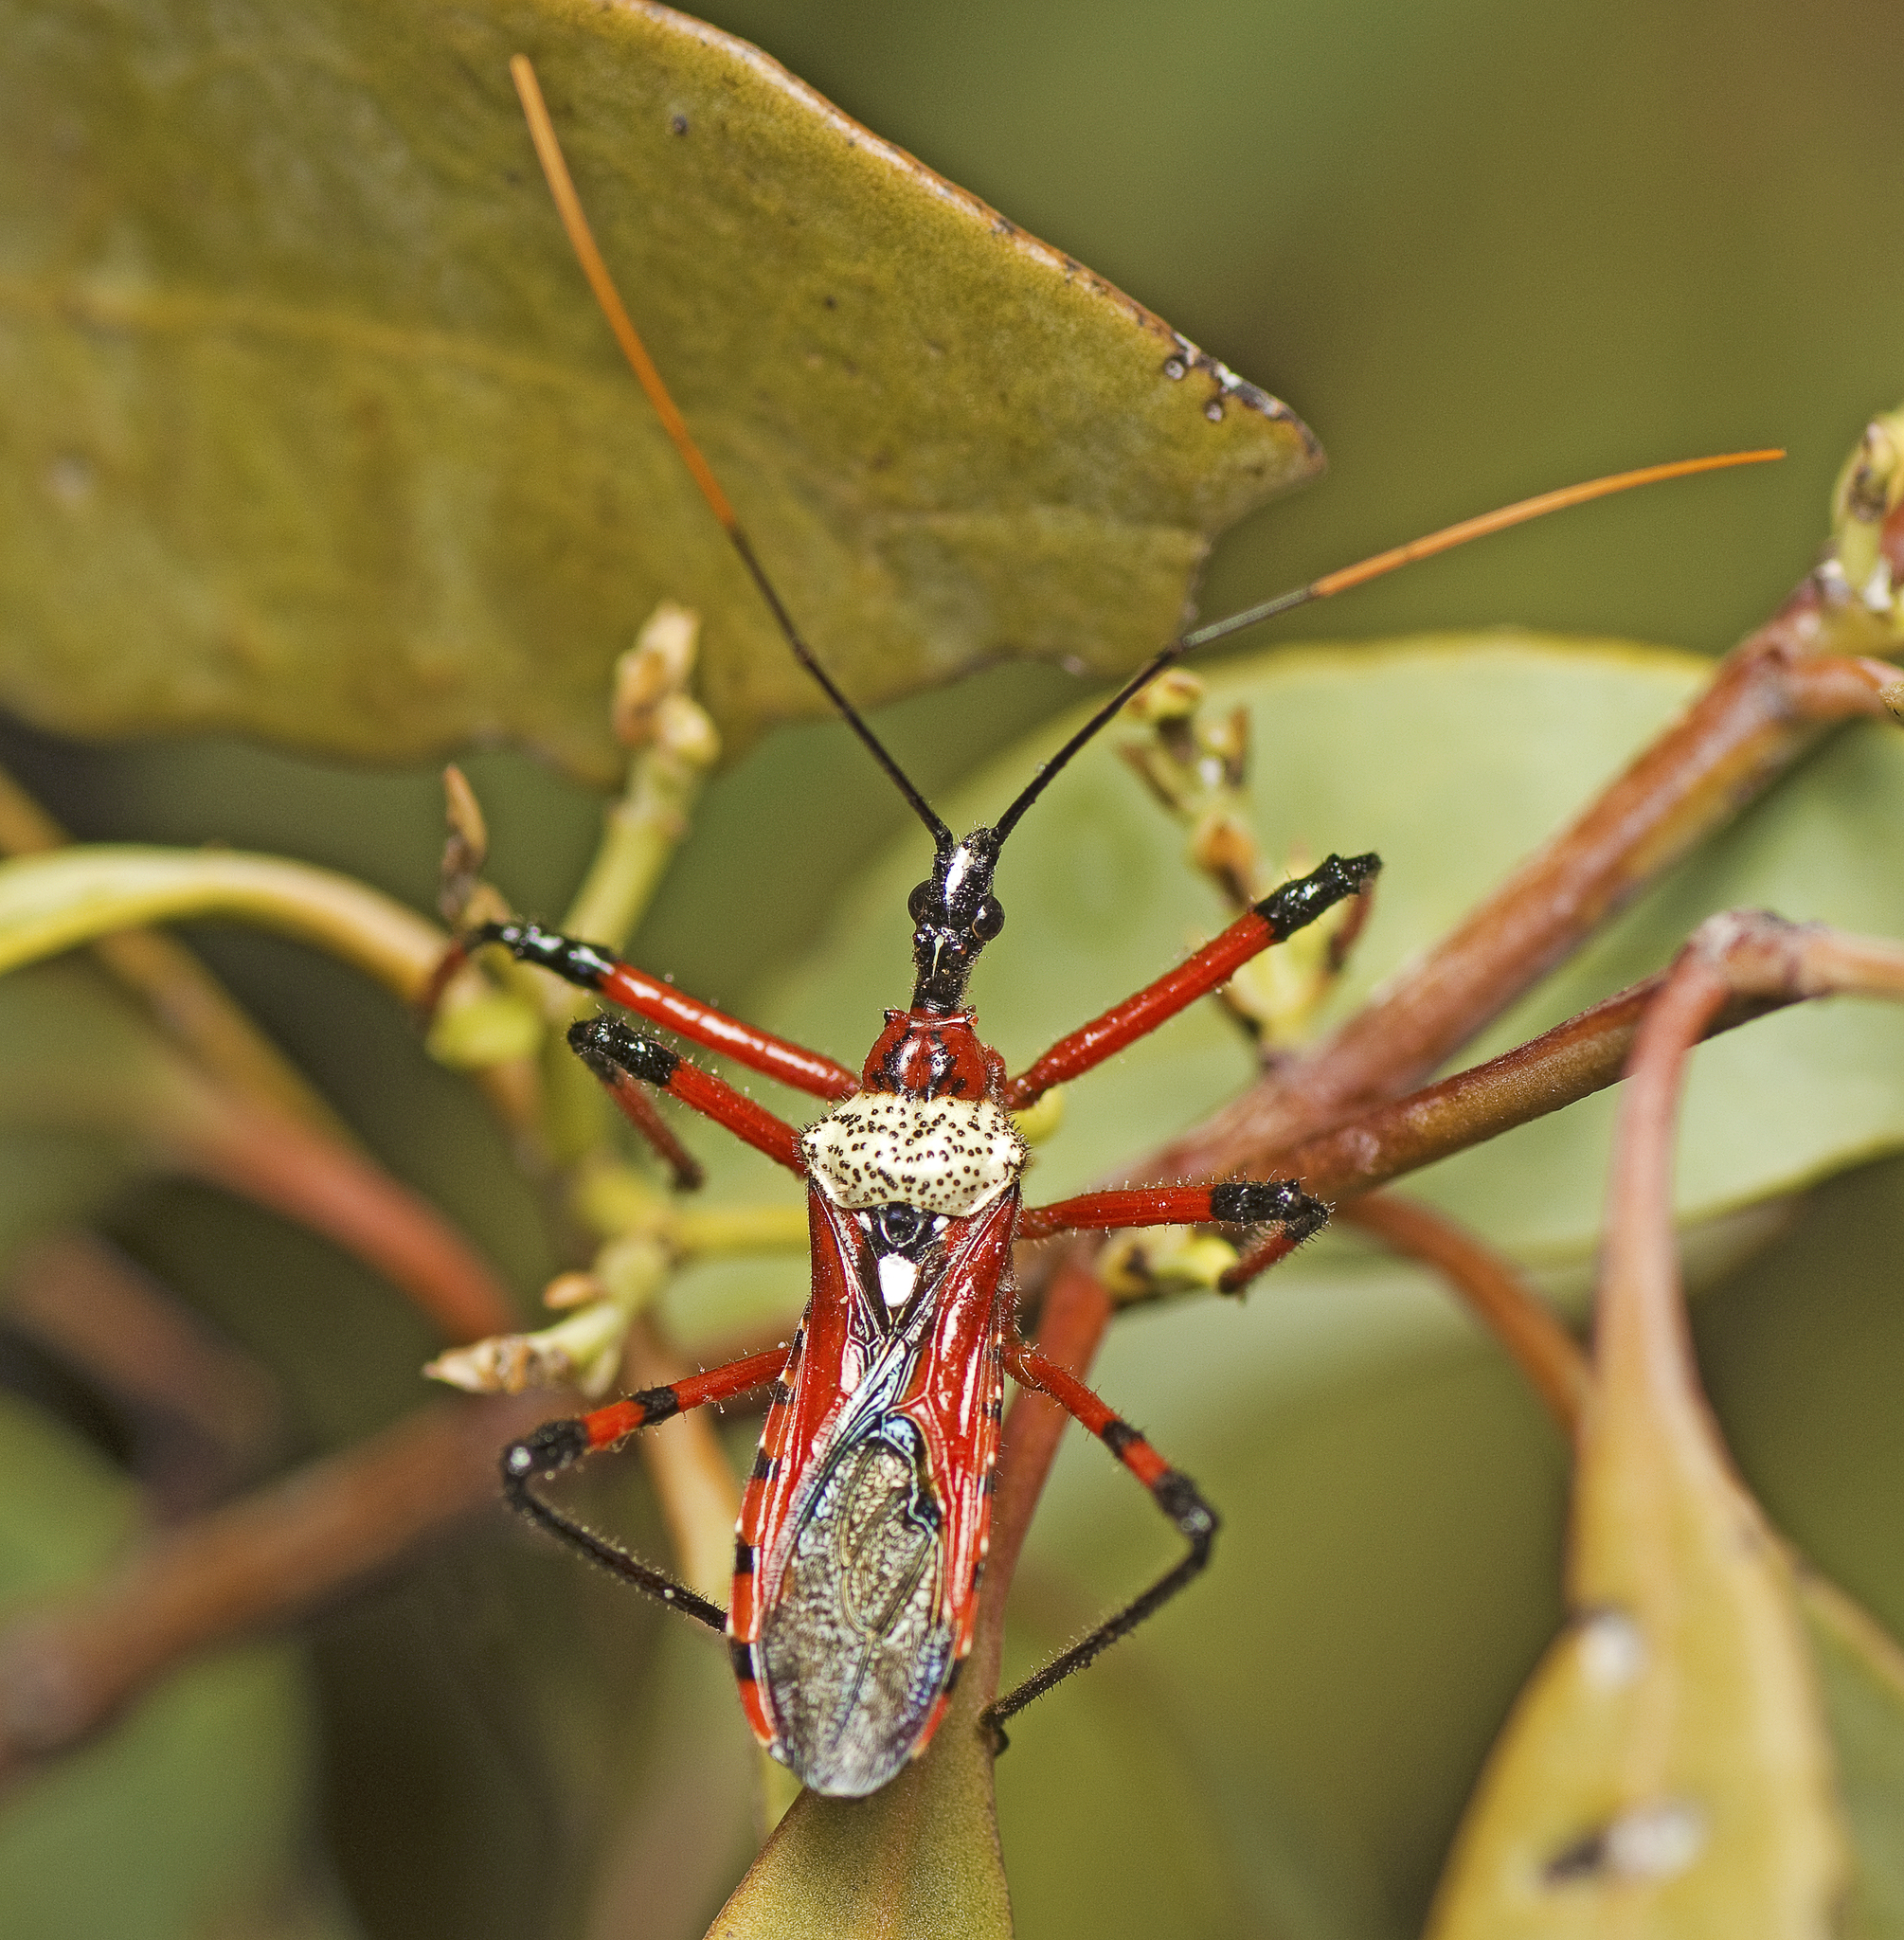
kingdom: Animalia
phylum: Arthropoda
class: Insecta
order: Hemiptera
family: Reduviidae
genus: Poecilosphodrus
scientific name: Poecilosphodrus gratiosus
